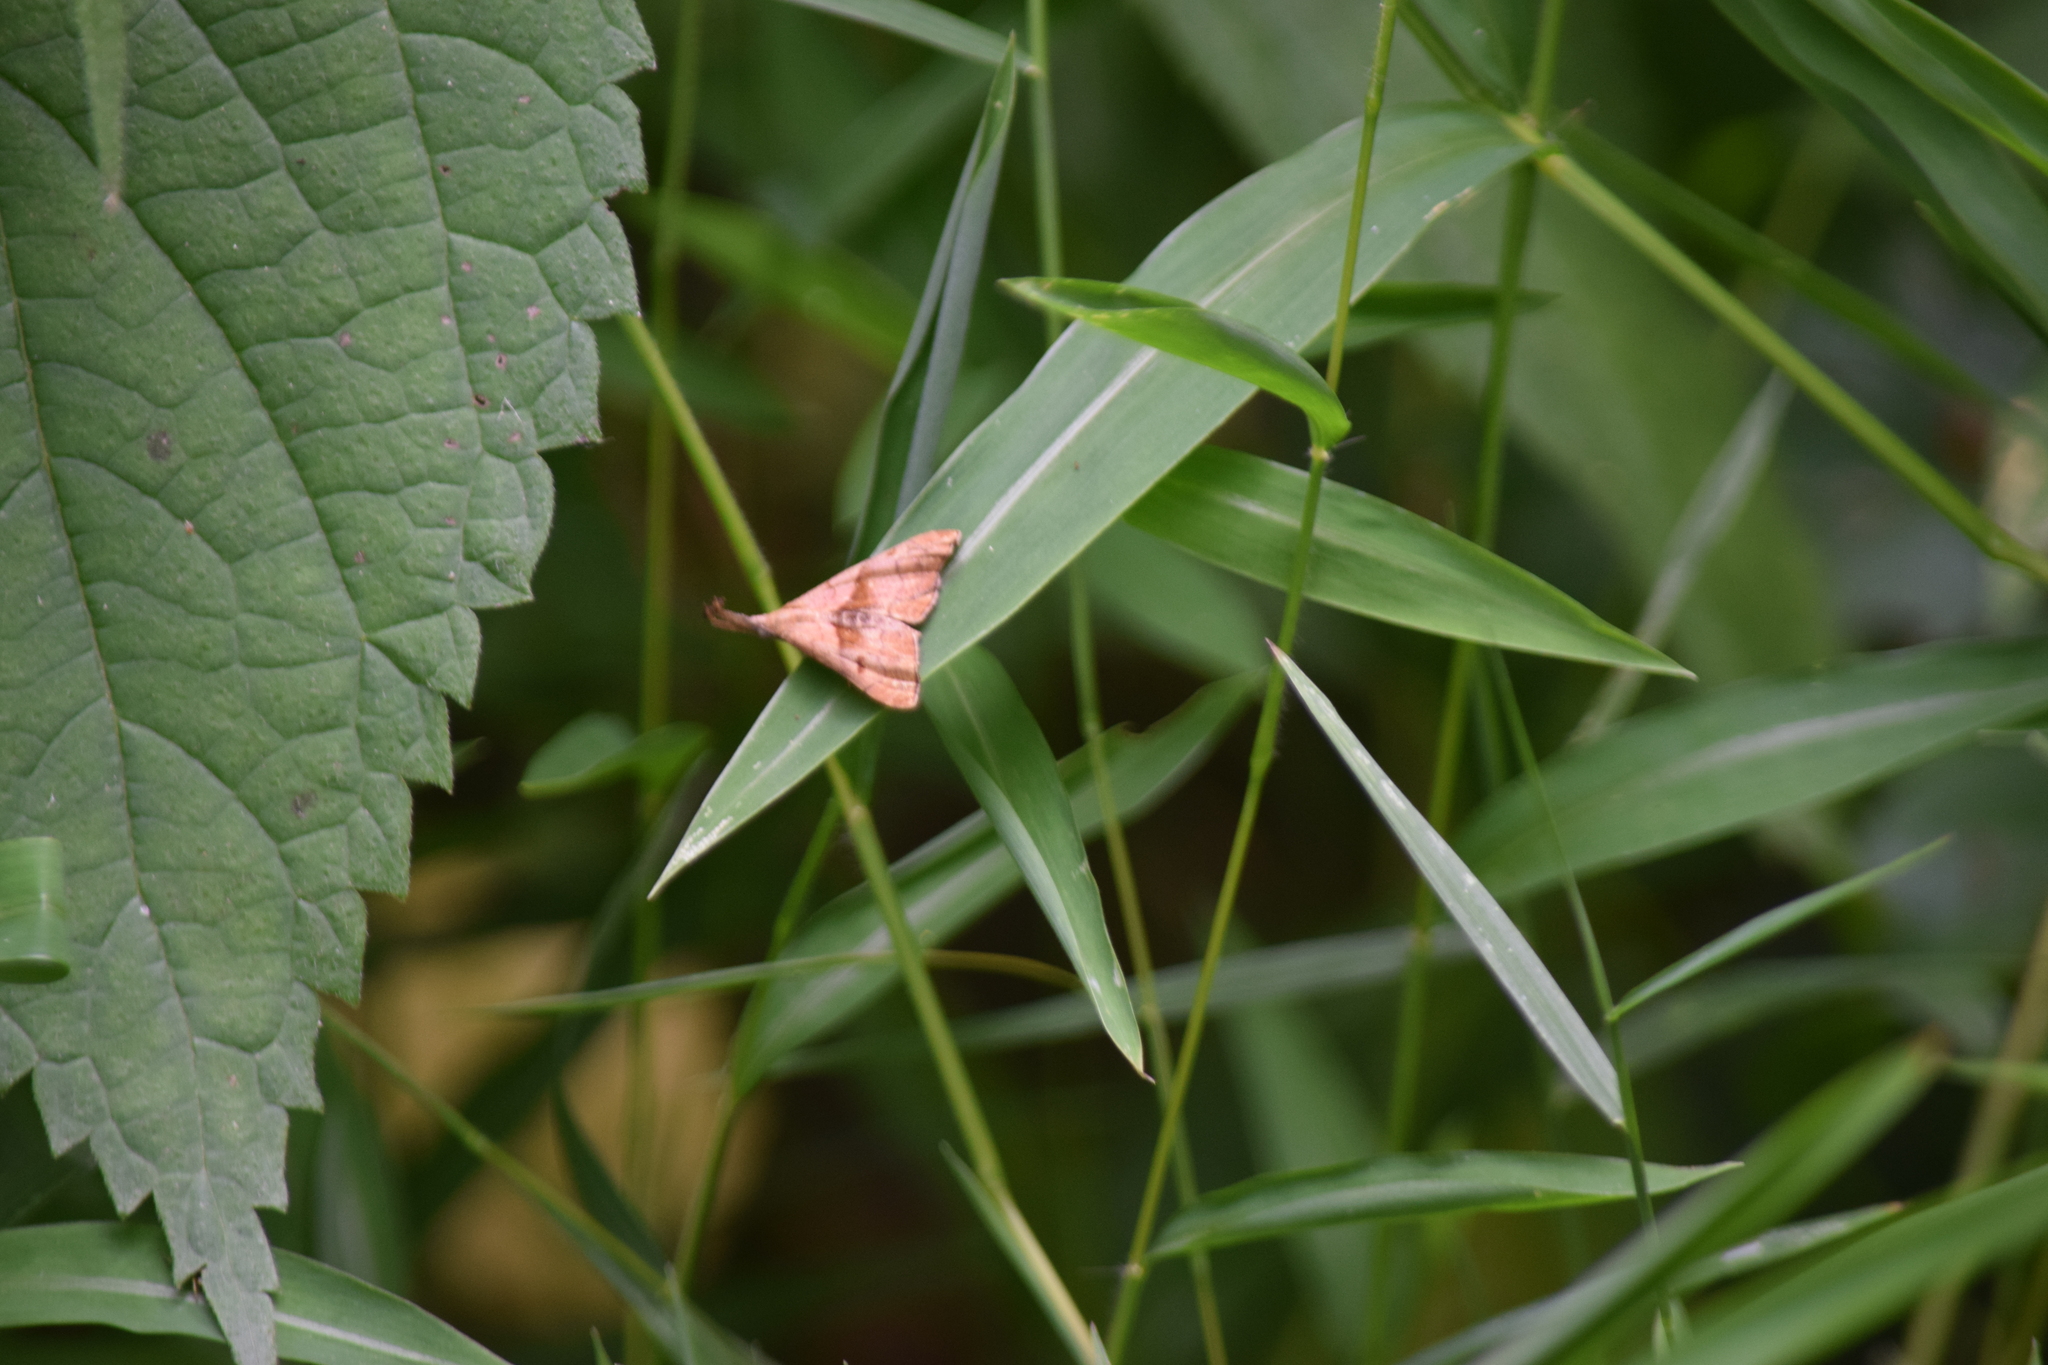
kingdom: Animalia
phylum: Arthropoda
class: Insecta
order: Lepidoptera
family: Erebidae
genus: Palthis
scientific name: Palthis angulalis
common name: Dark-spotted palthis moth
